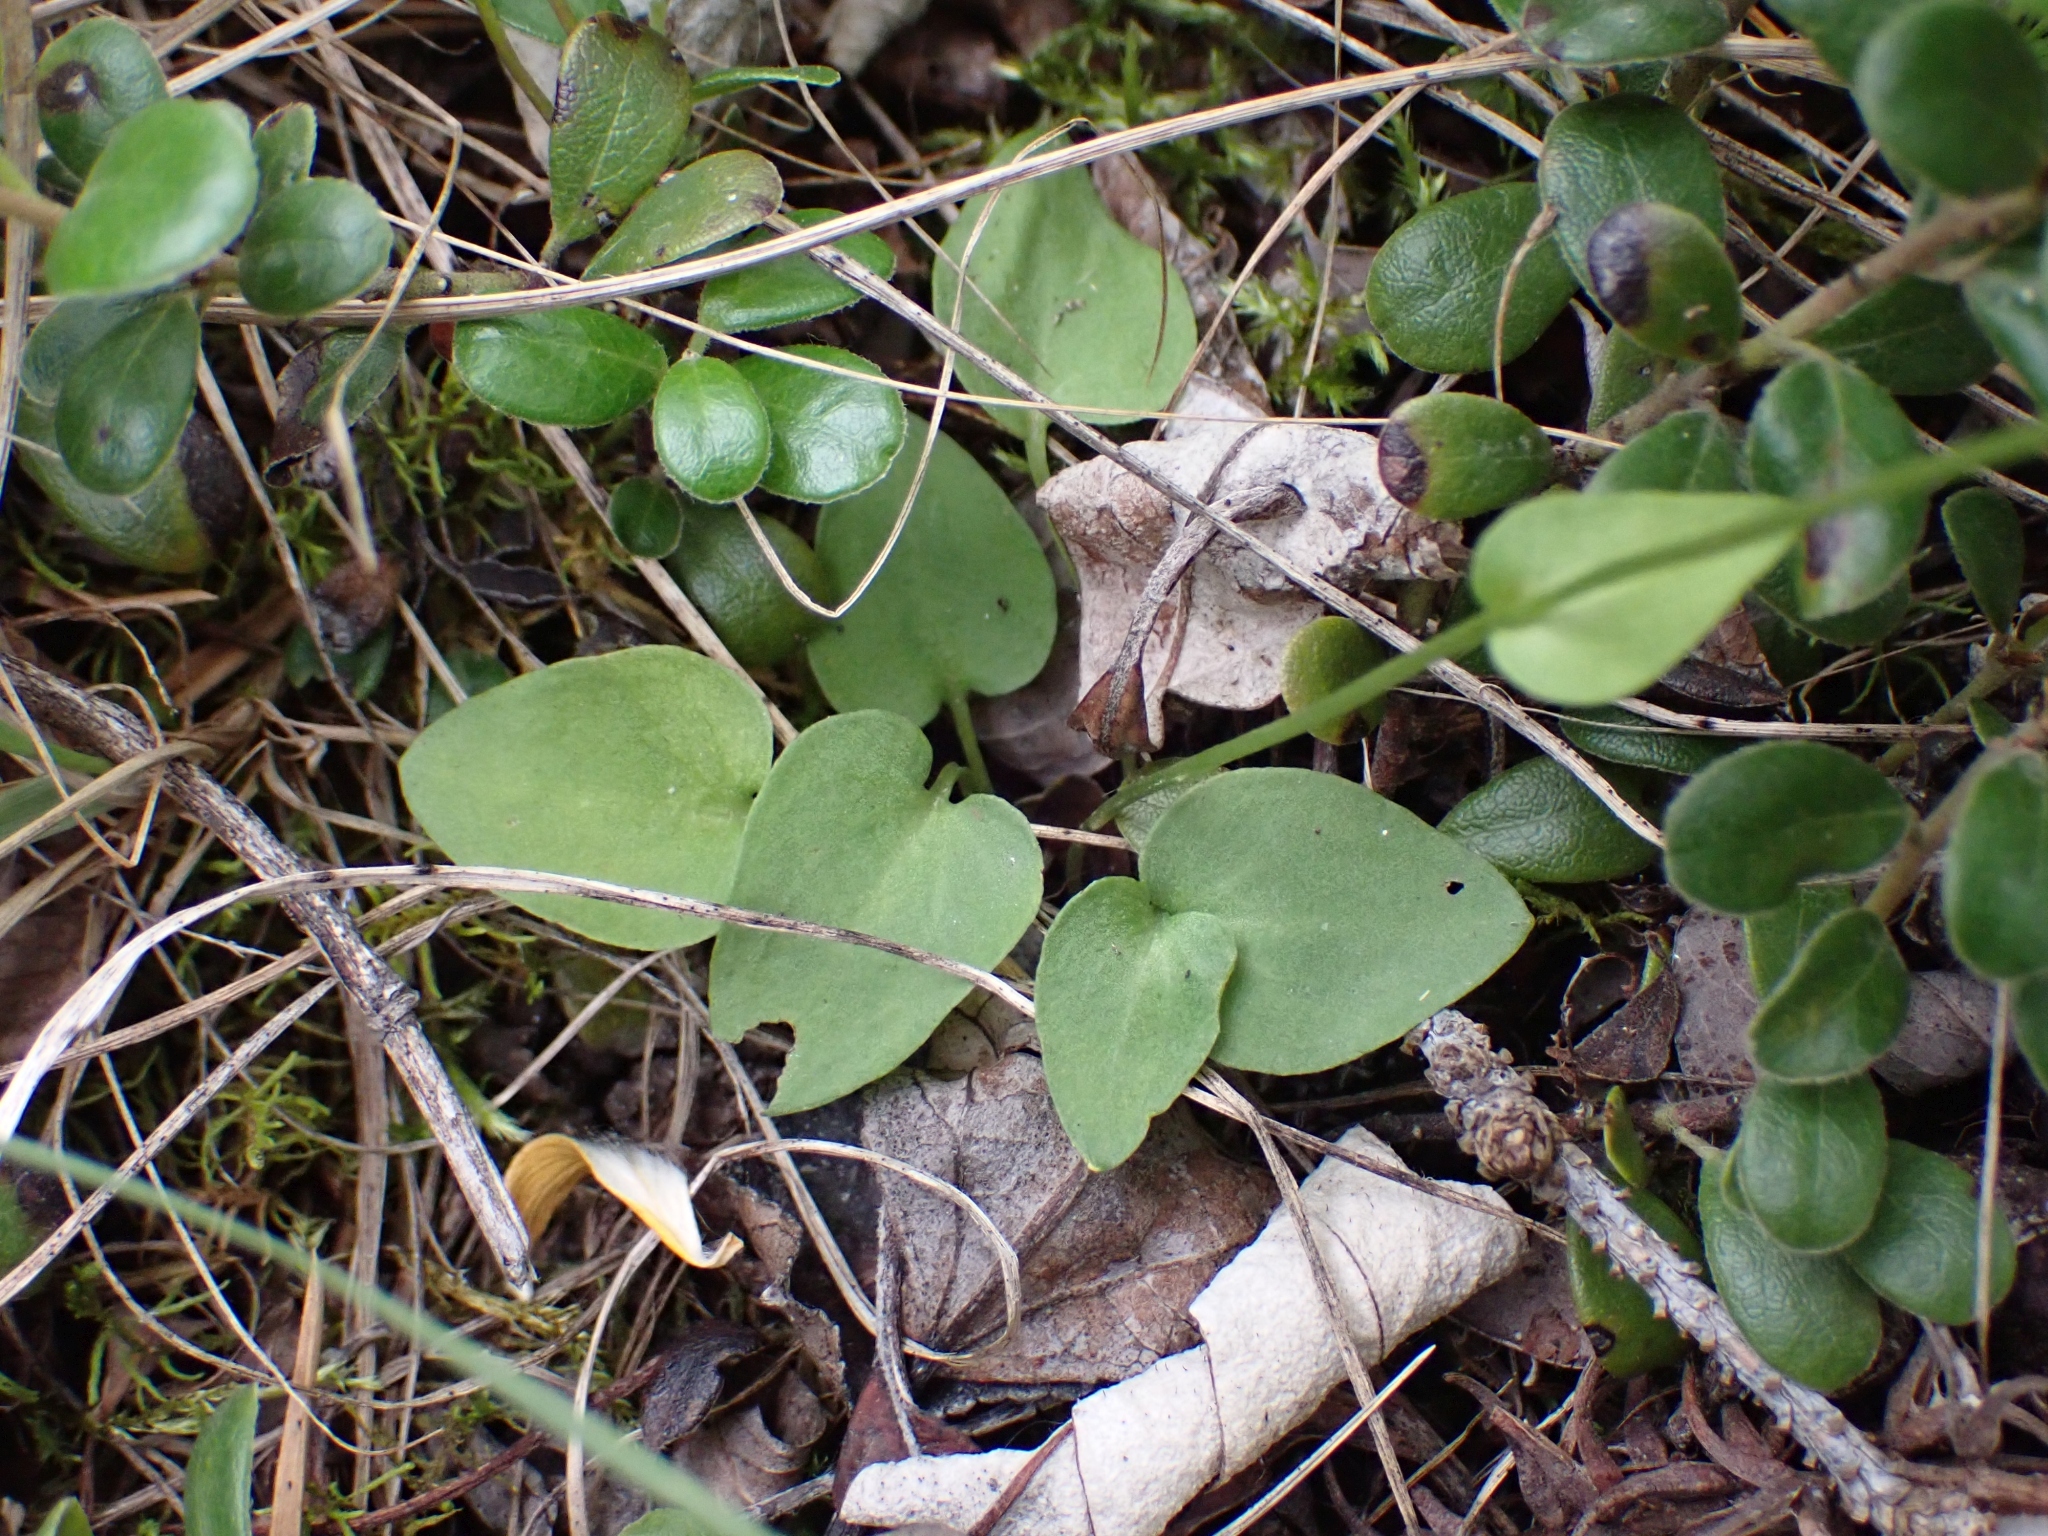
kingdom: Plantae
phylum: Tracheophyta
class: Magnoliopsida
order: Celastrales
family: Parnassiaceae
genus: Parnassia
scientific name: Parnassia palustris
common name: Grass-of-parnassus
